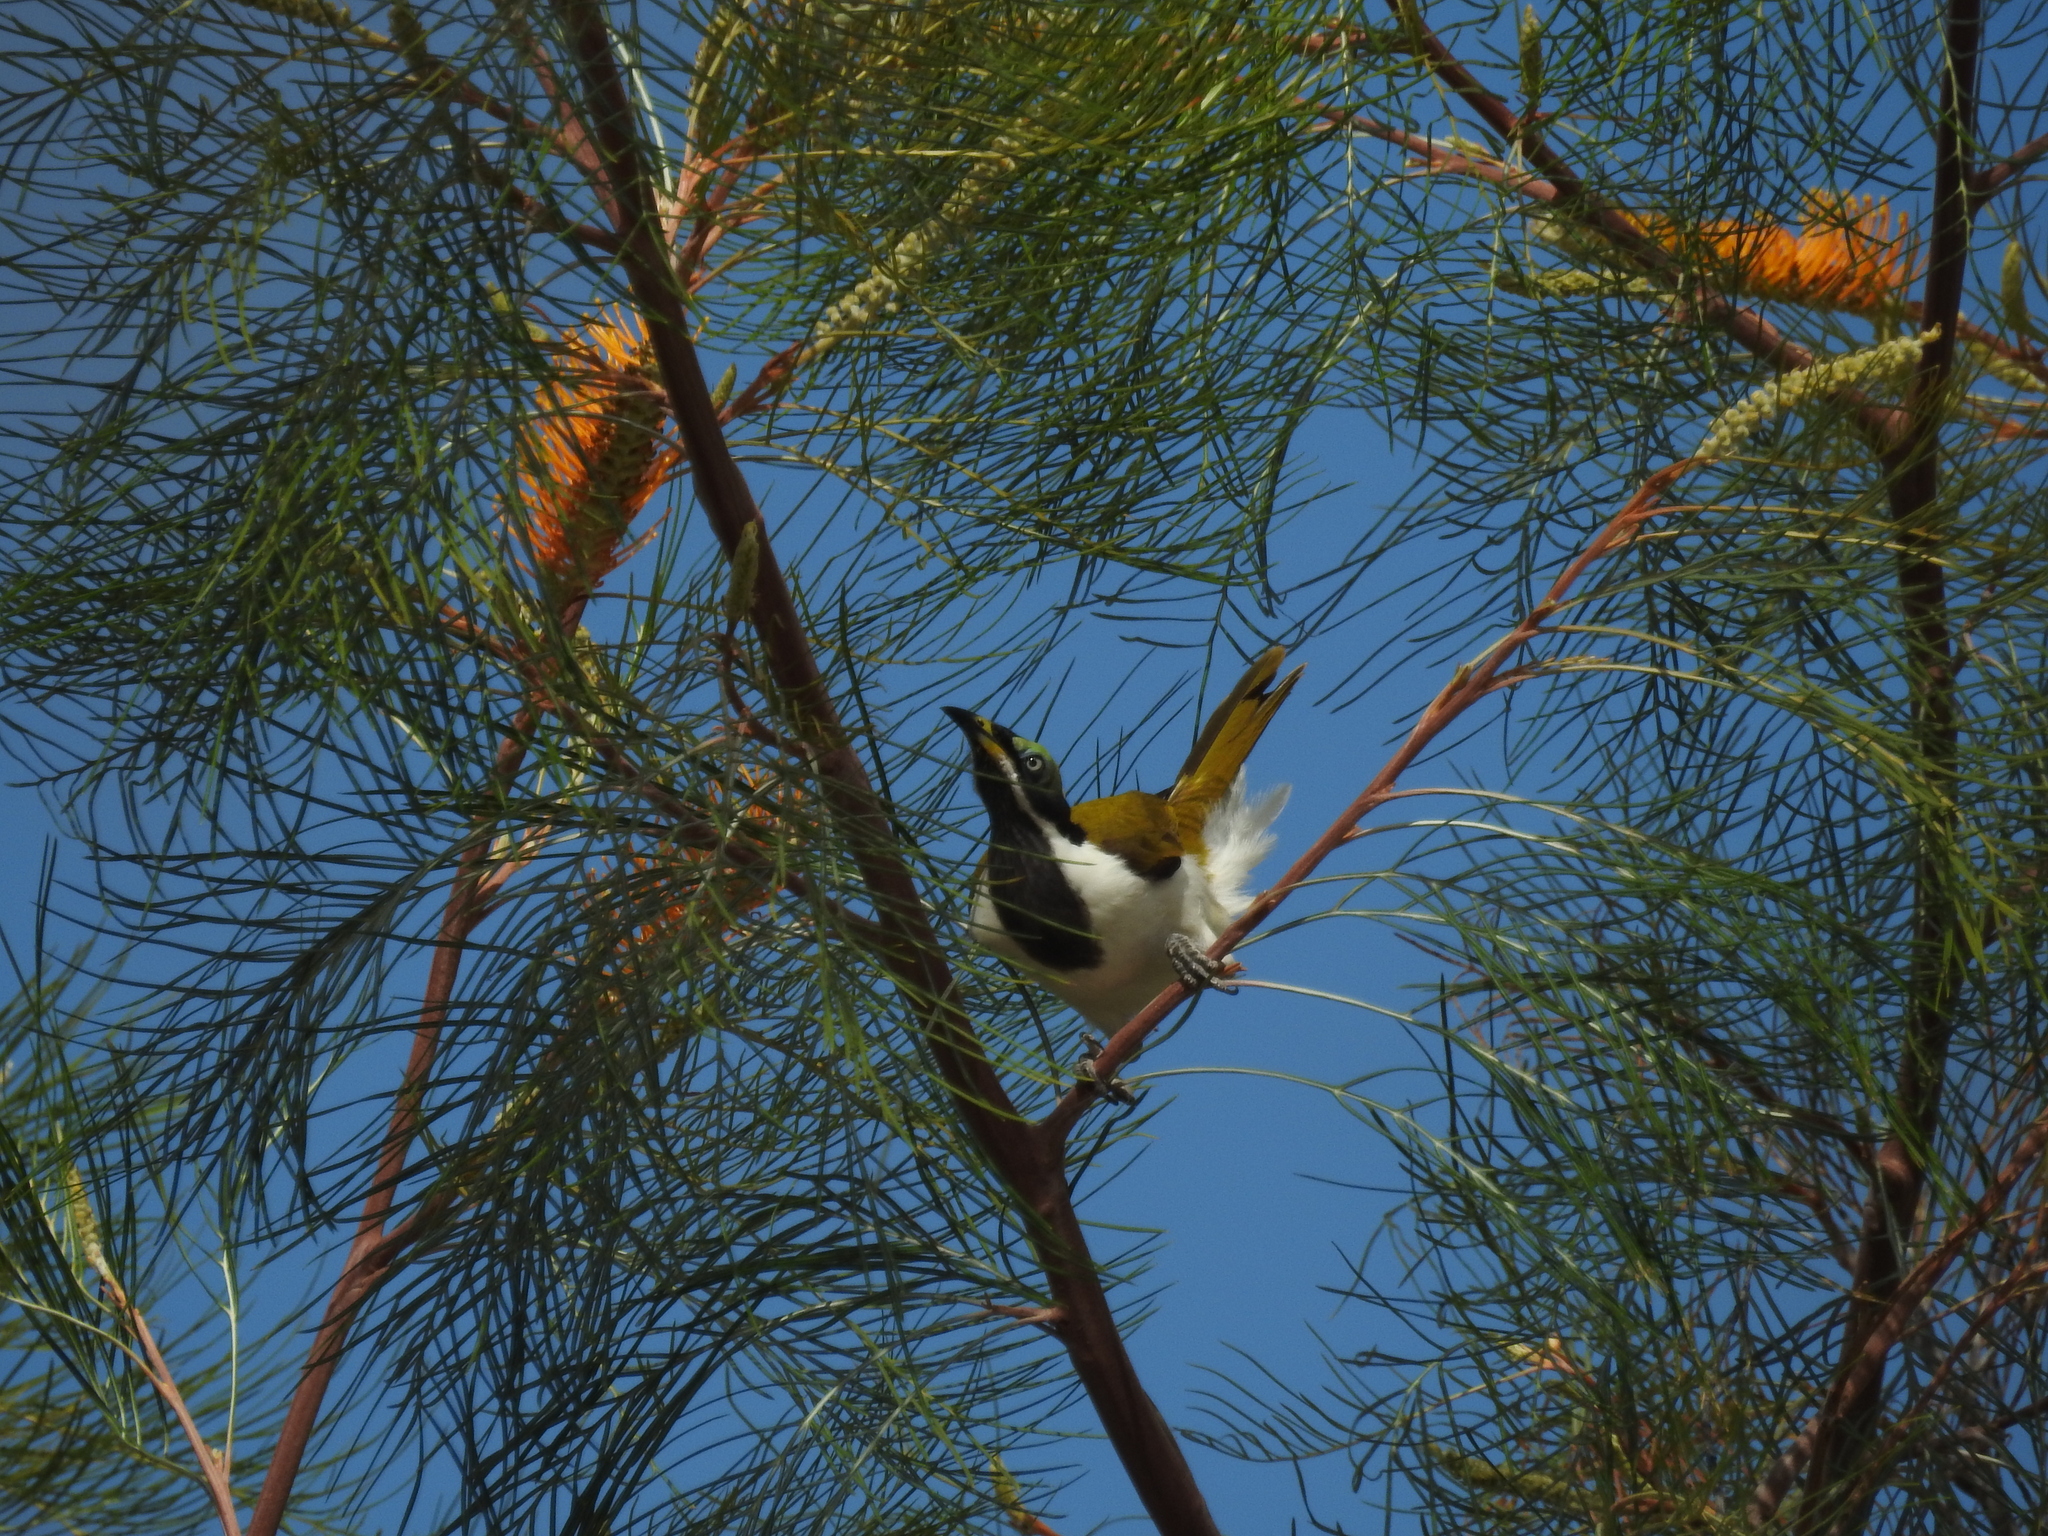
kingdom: Animalia
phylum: Chordata
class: Aves
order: Passeriformes
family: Meliphagidae
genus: Entomyzon
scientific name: Entomyzon cyanotis
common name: Blue-faced honeyeater
